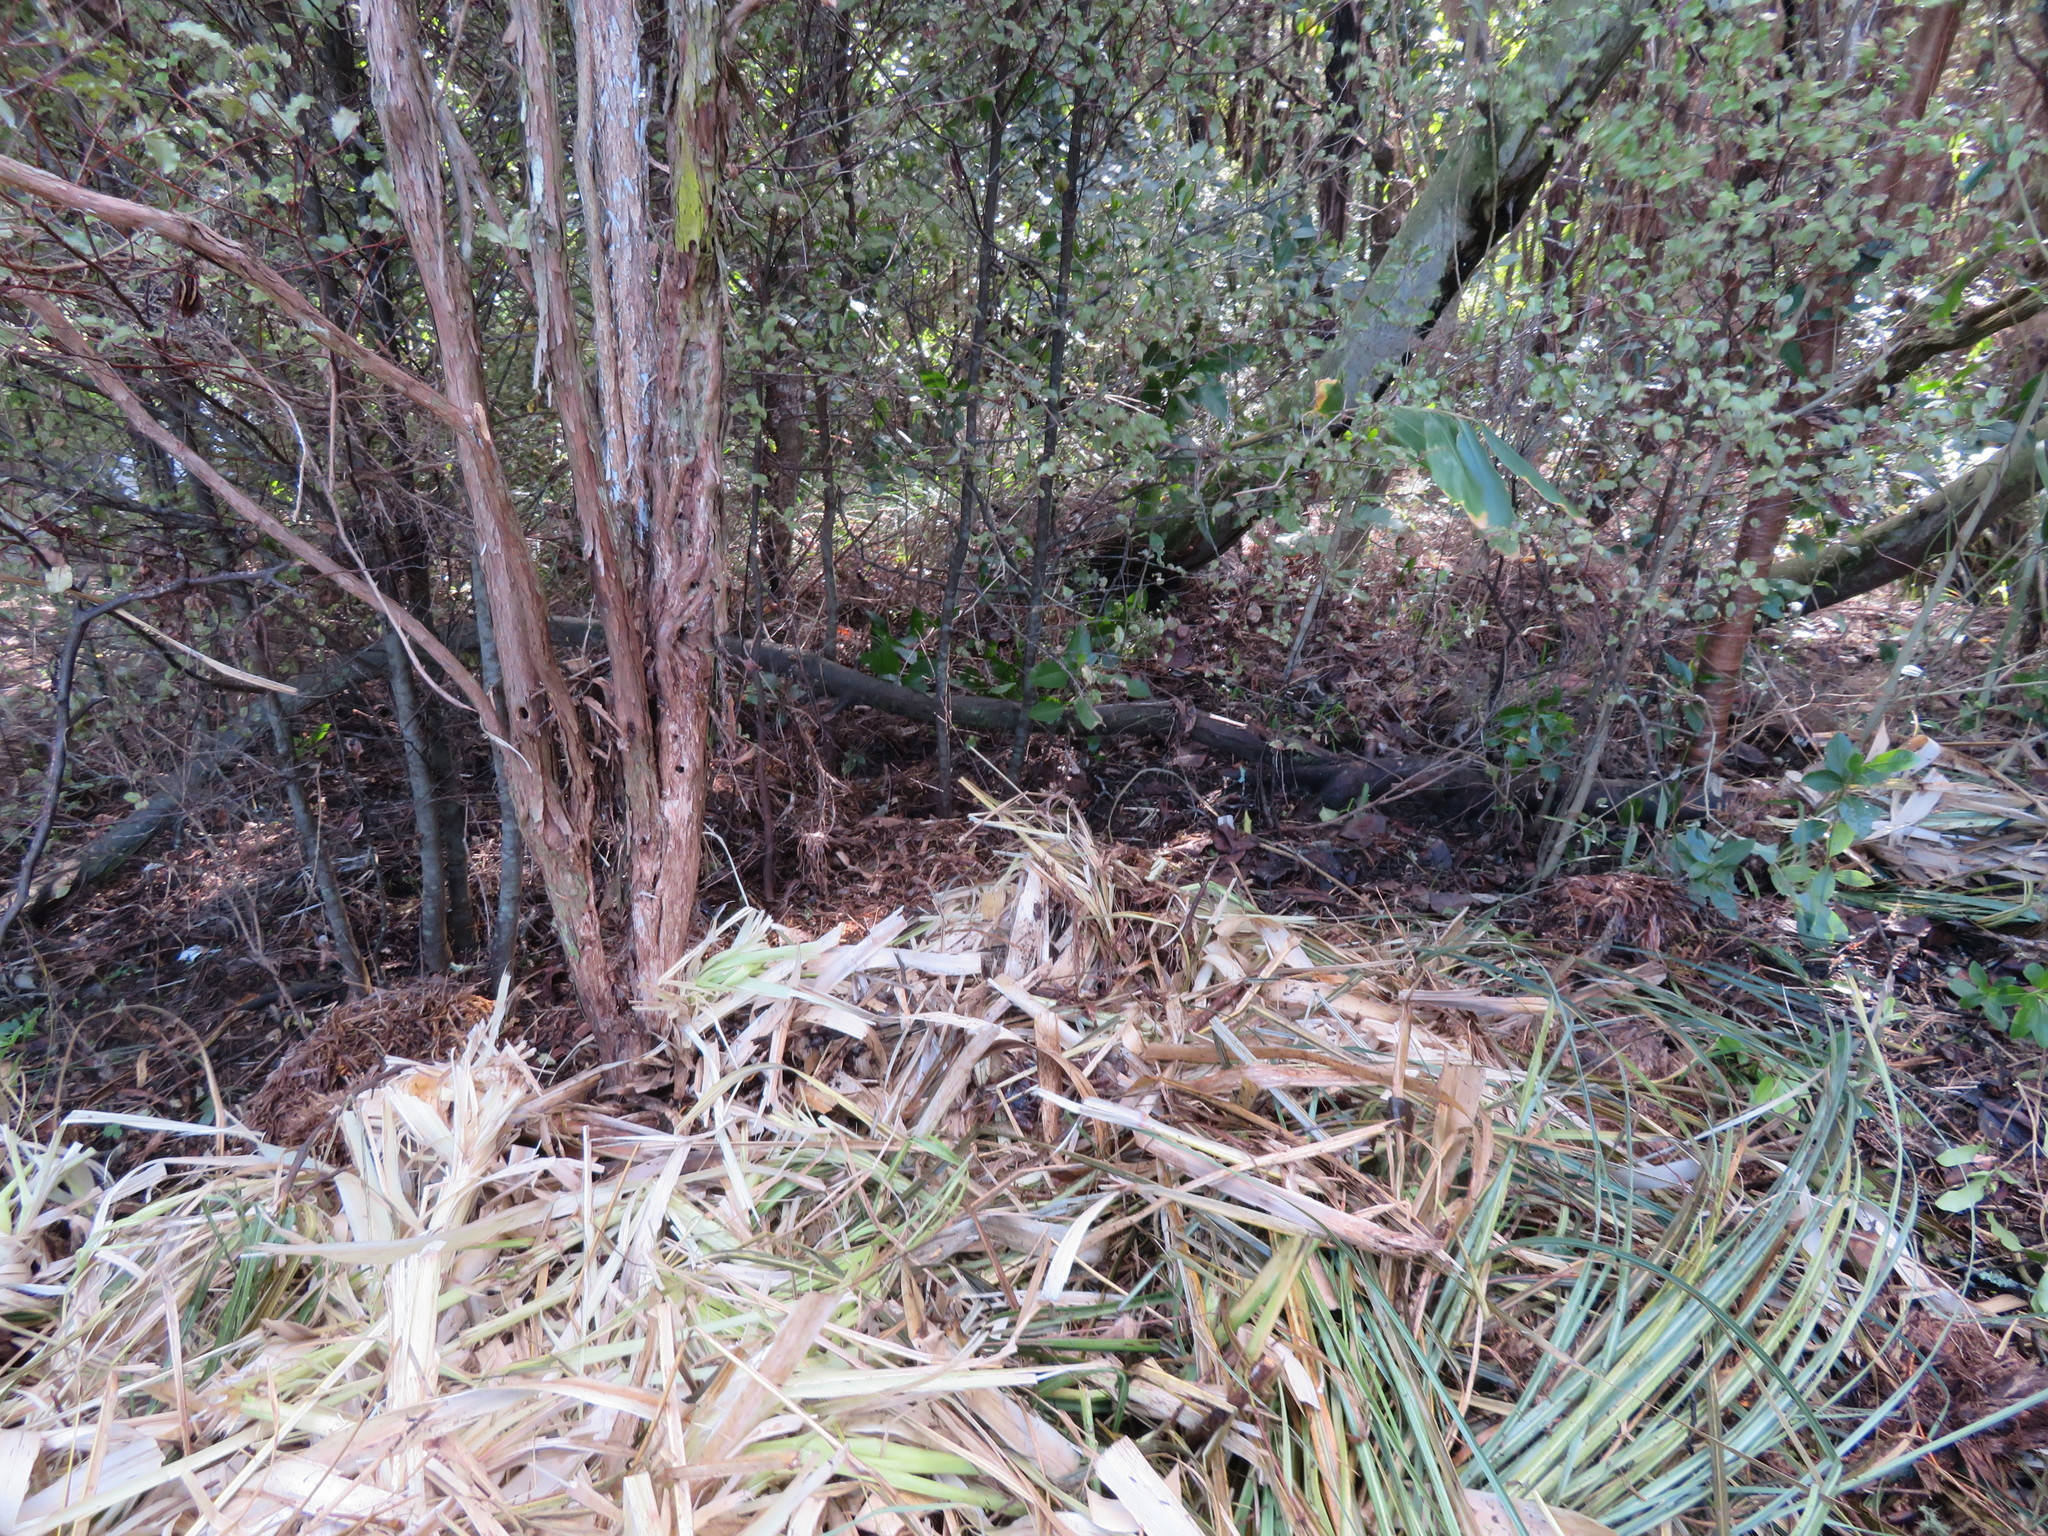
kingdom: Plantae
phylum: Tracheophyta
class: Liliopsida
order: Poales
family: Poaceae
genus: Cortaderia
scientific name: Cortaderia selloana
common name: Uruguayan pampas grass
